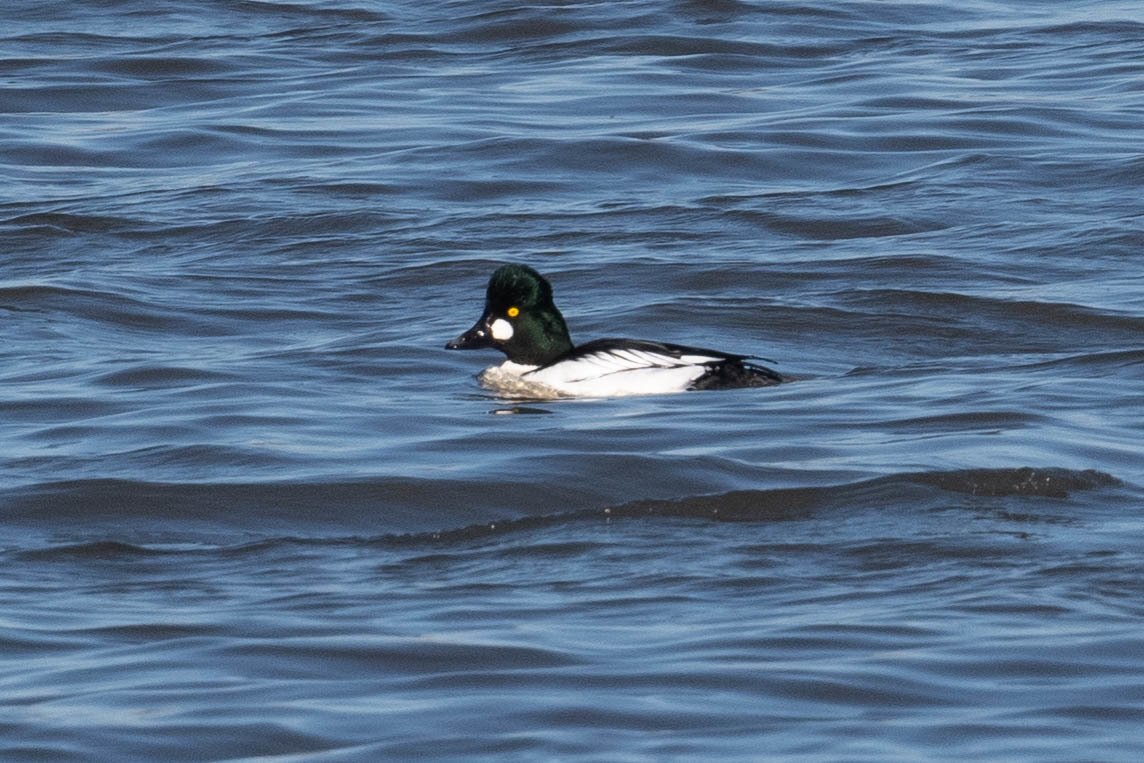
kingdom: Animalia
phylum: Chordata
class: Aves
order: Anseriformes
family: Anatidae
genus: Bucephala
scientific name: Bucephala clangula
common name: Common goldeneye
